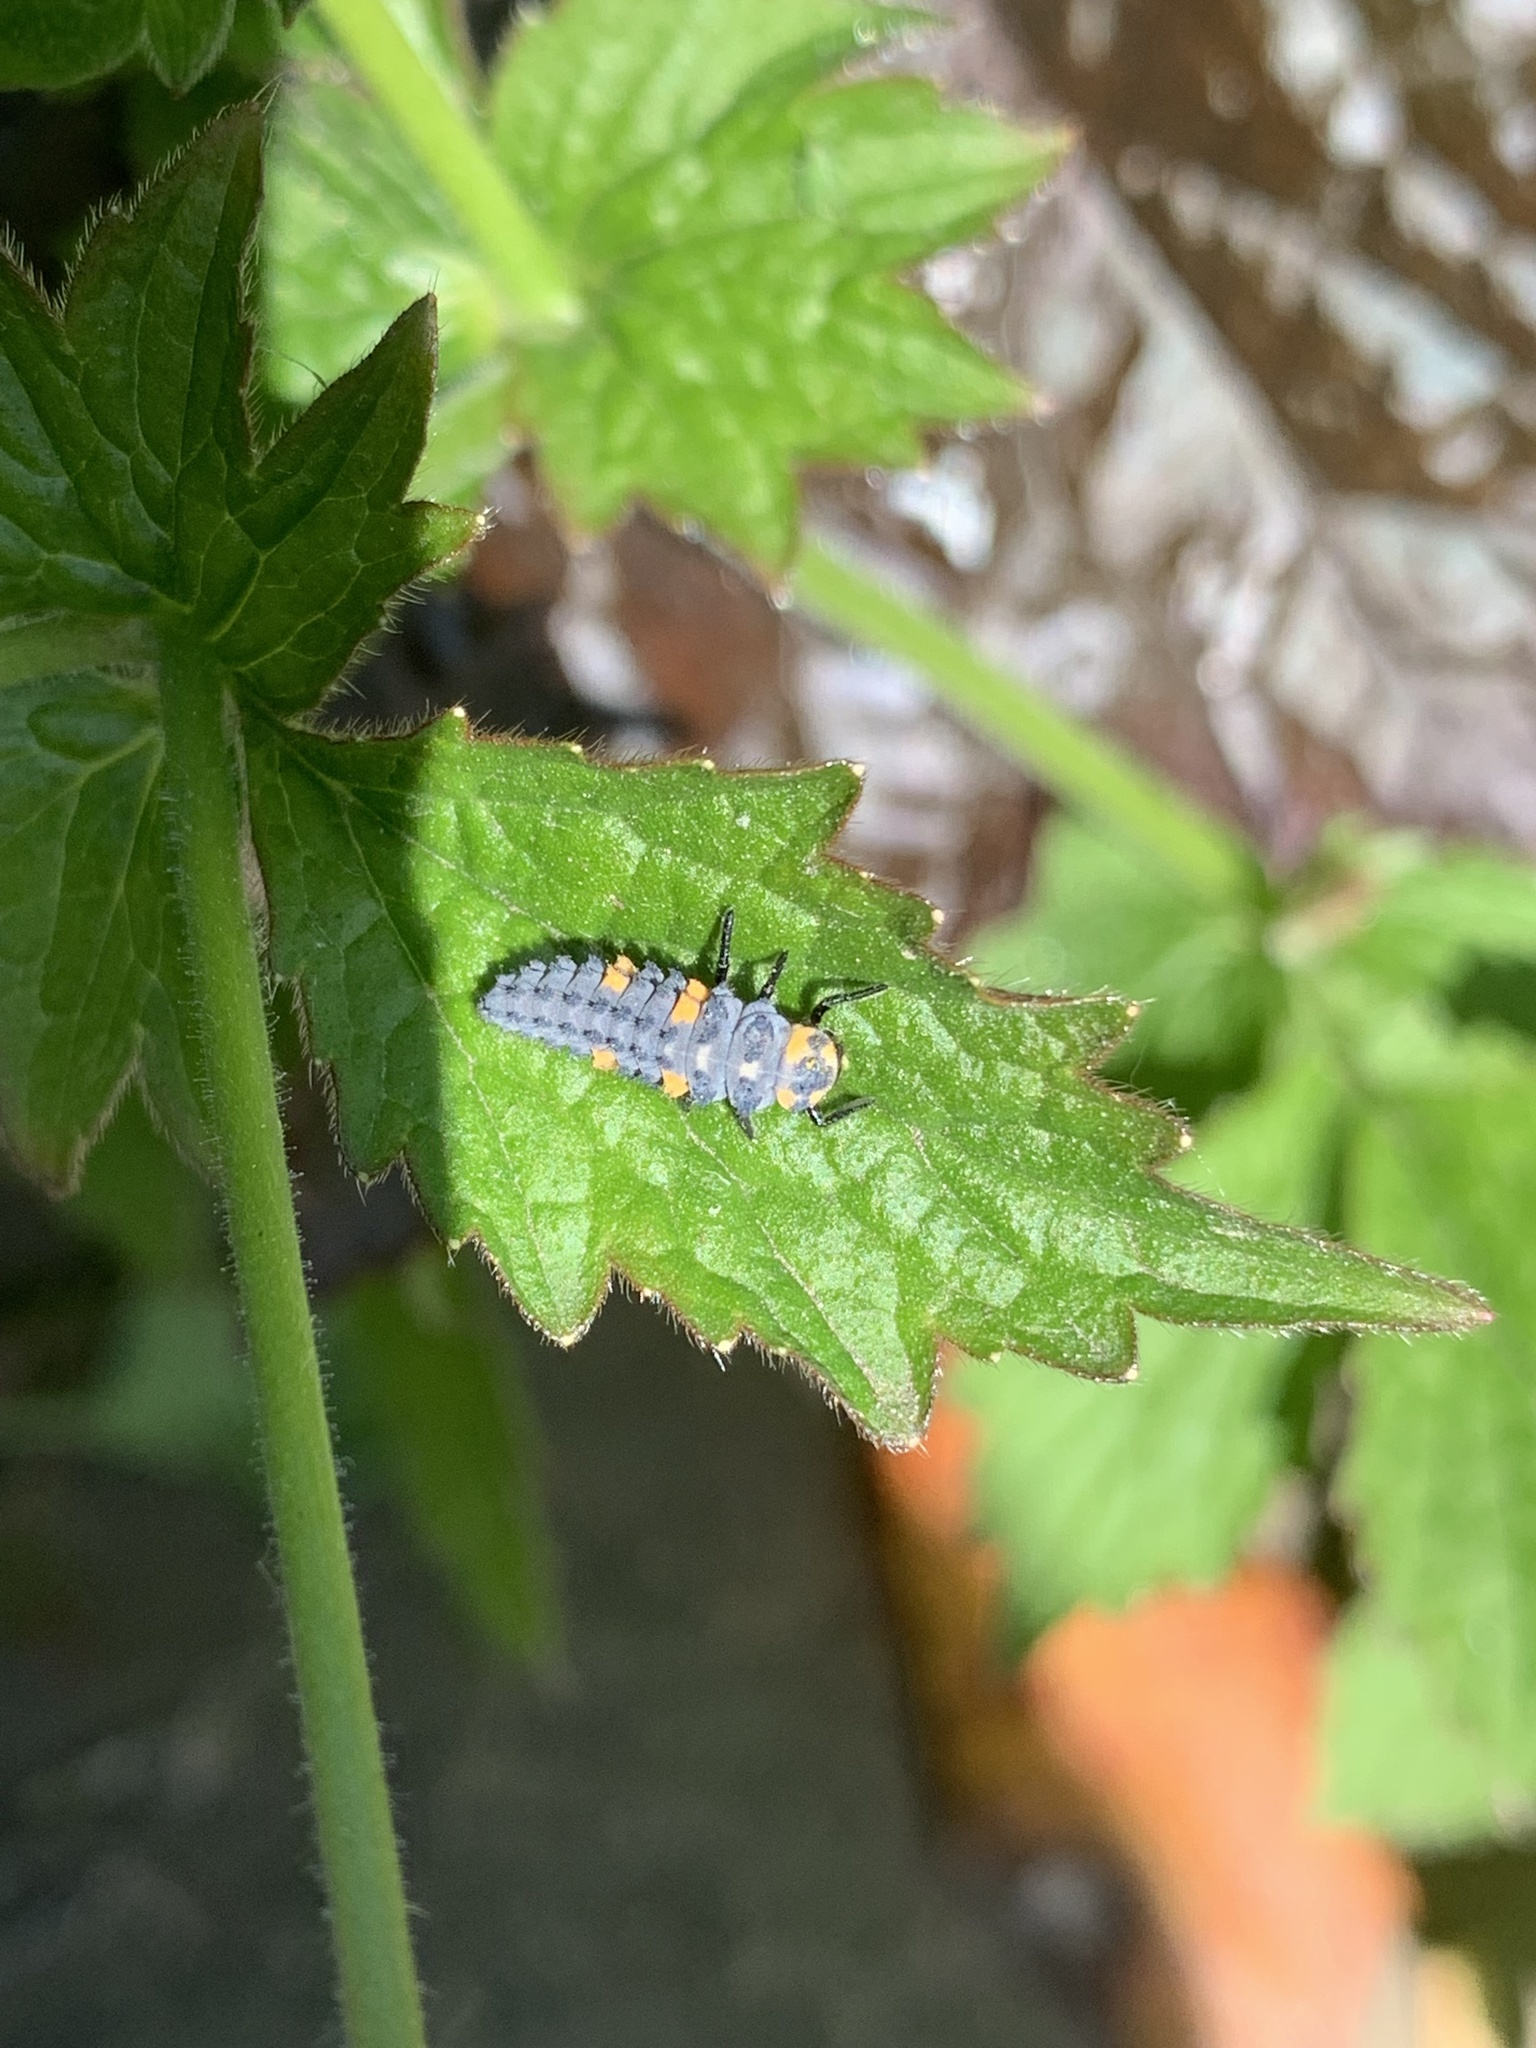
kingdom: Animalia
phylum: Arthropoda
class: Insecta
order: Coleoptera
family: Coccinellidae
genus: Coccinella
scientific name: Coccinella septempunctata
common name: Sevenspotted lady beetle
